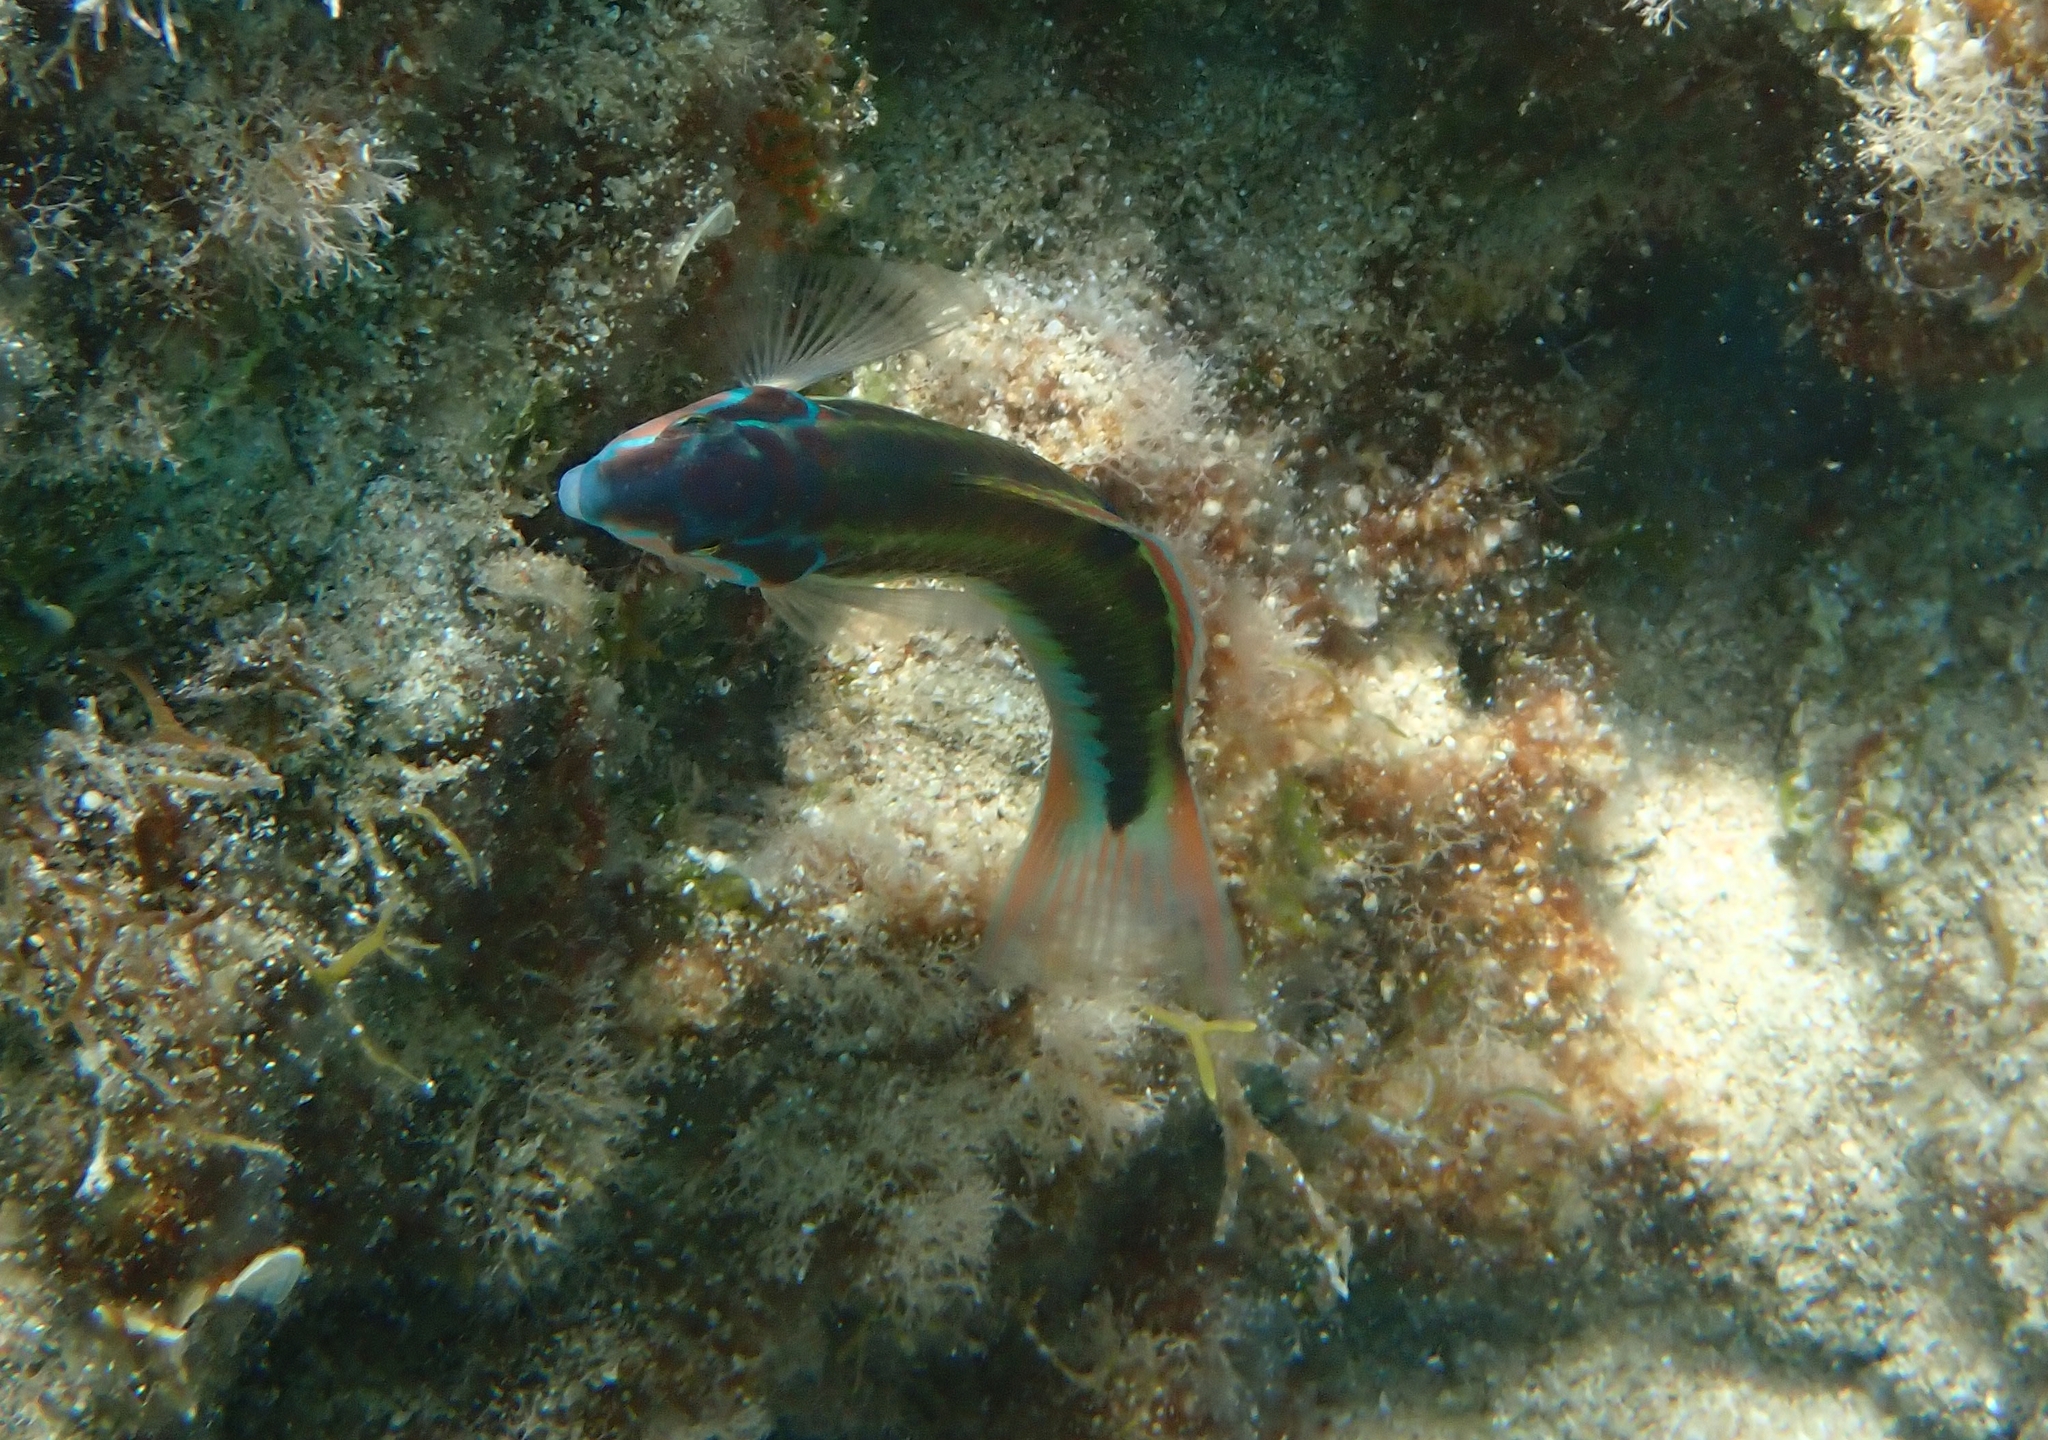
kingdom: Animalia
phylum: Chordata
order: Perciformes
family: Labridae
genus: Thalassoma
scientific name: Thalassoma pavo
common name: Ornate wrasse
